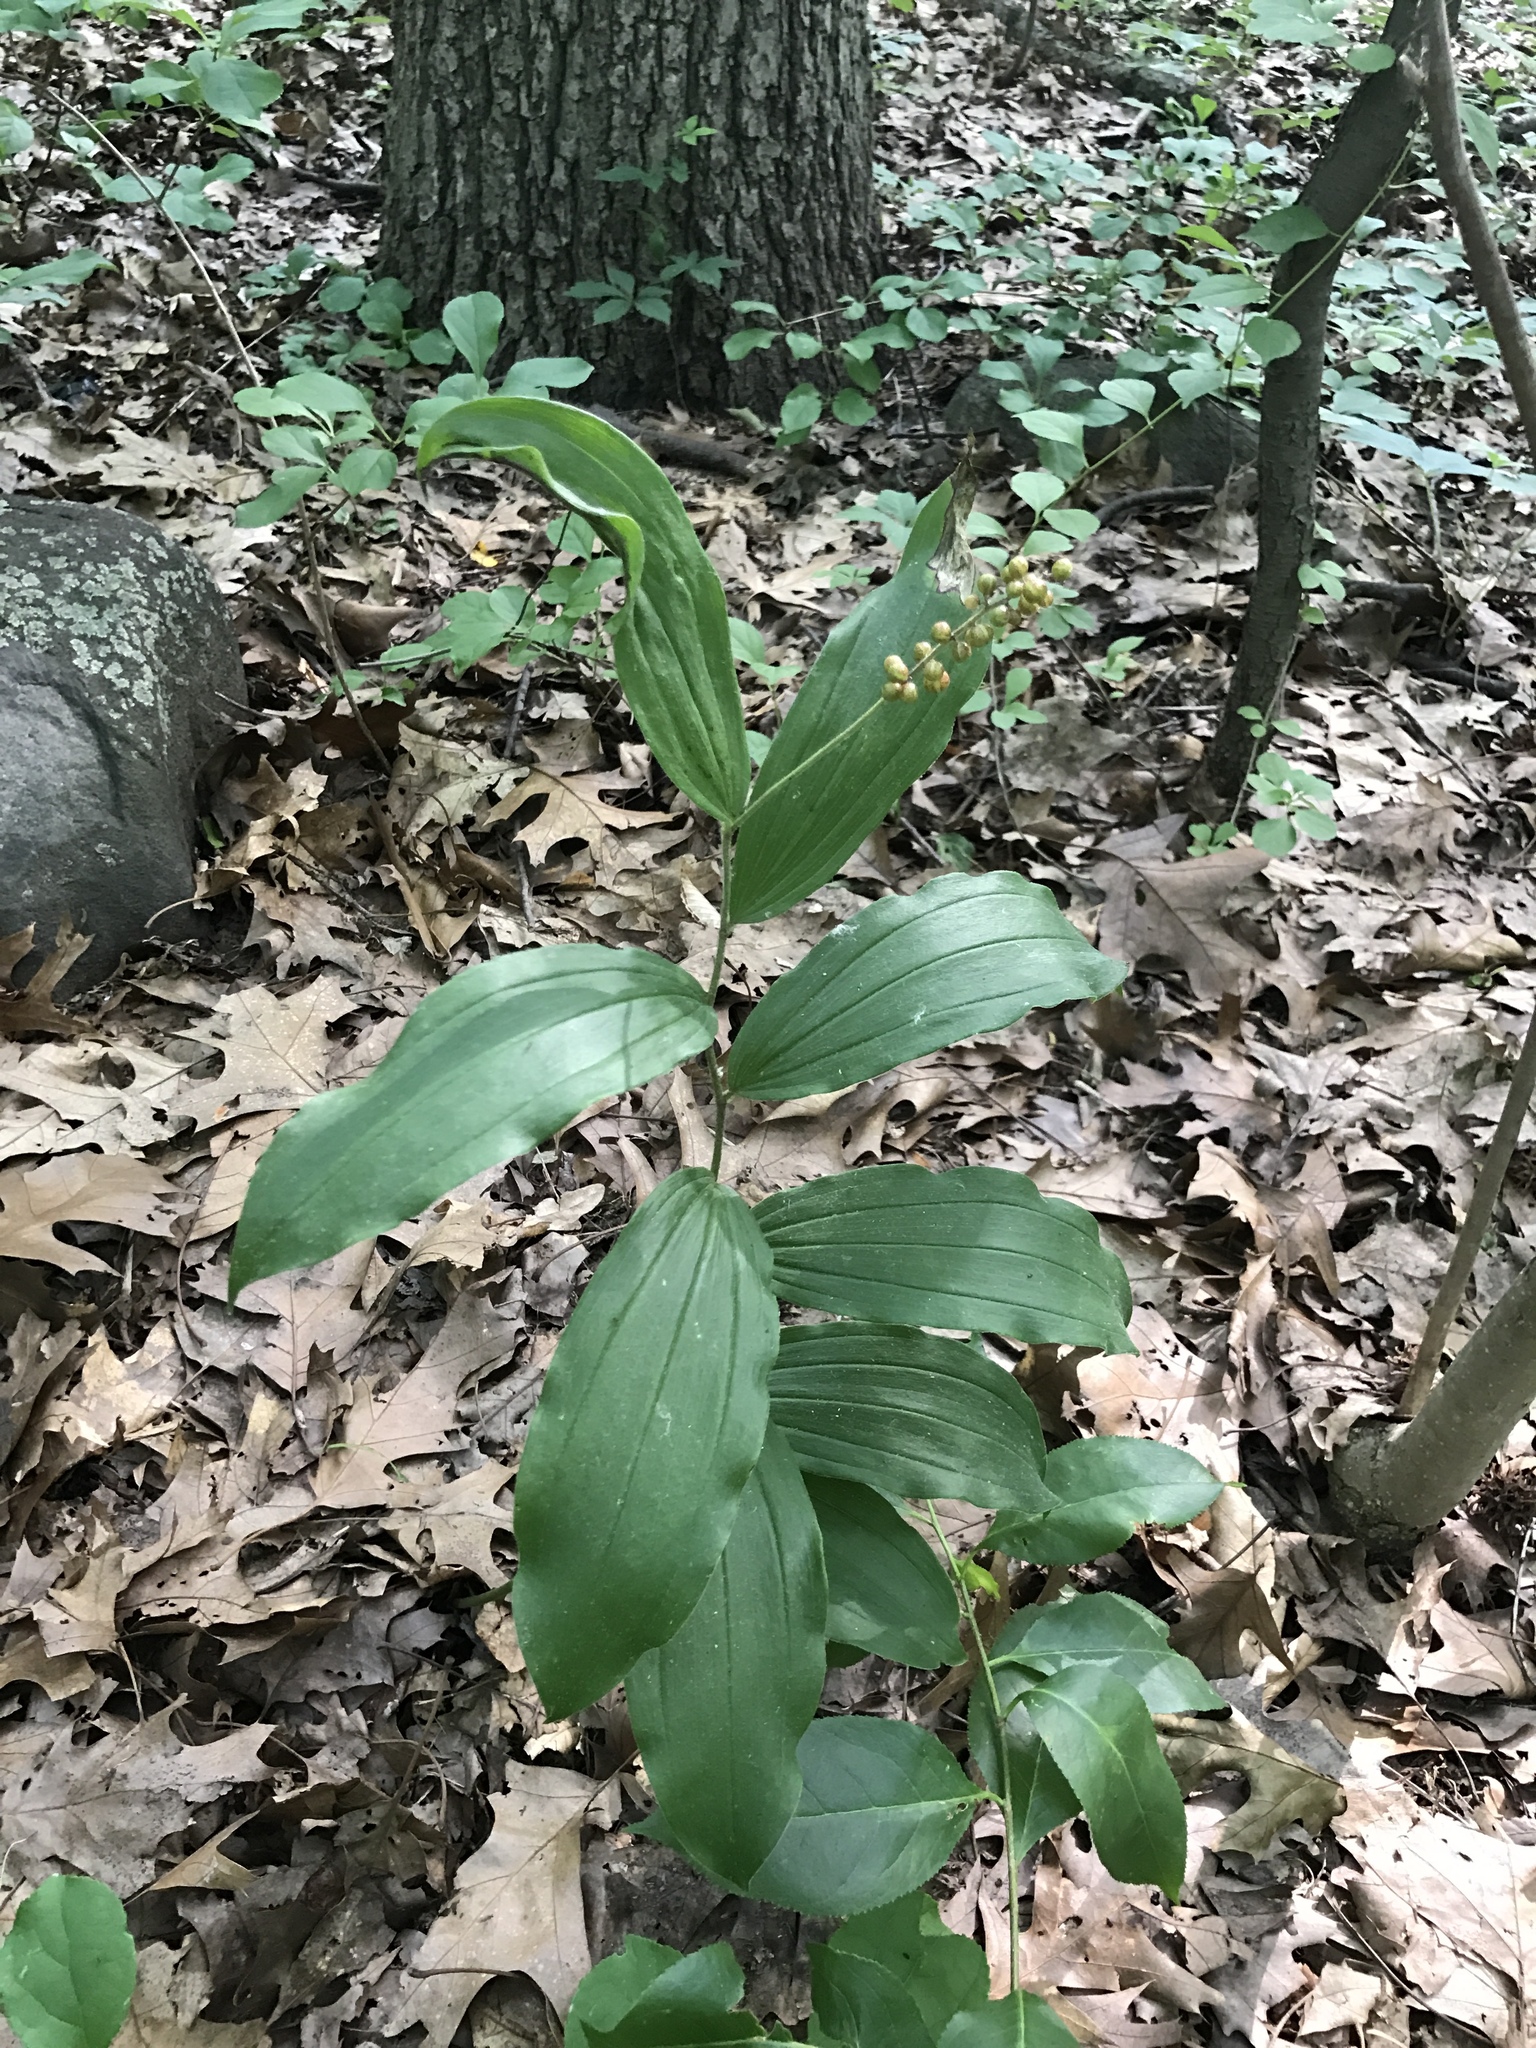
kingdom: Plantae
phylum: Tracheophyta
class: Liliopsida
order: Asparagales
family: Asparagaceae
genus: Maianthemum
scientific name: Maianthemum racemosum
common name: False spikenard
